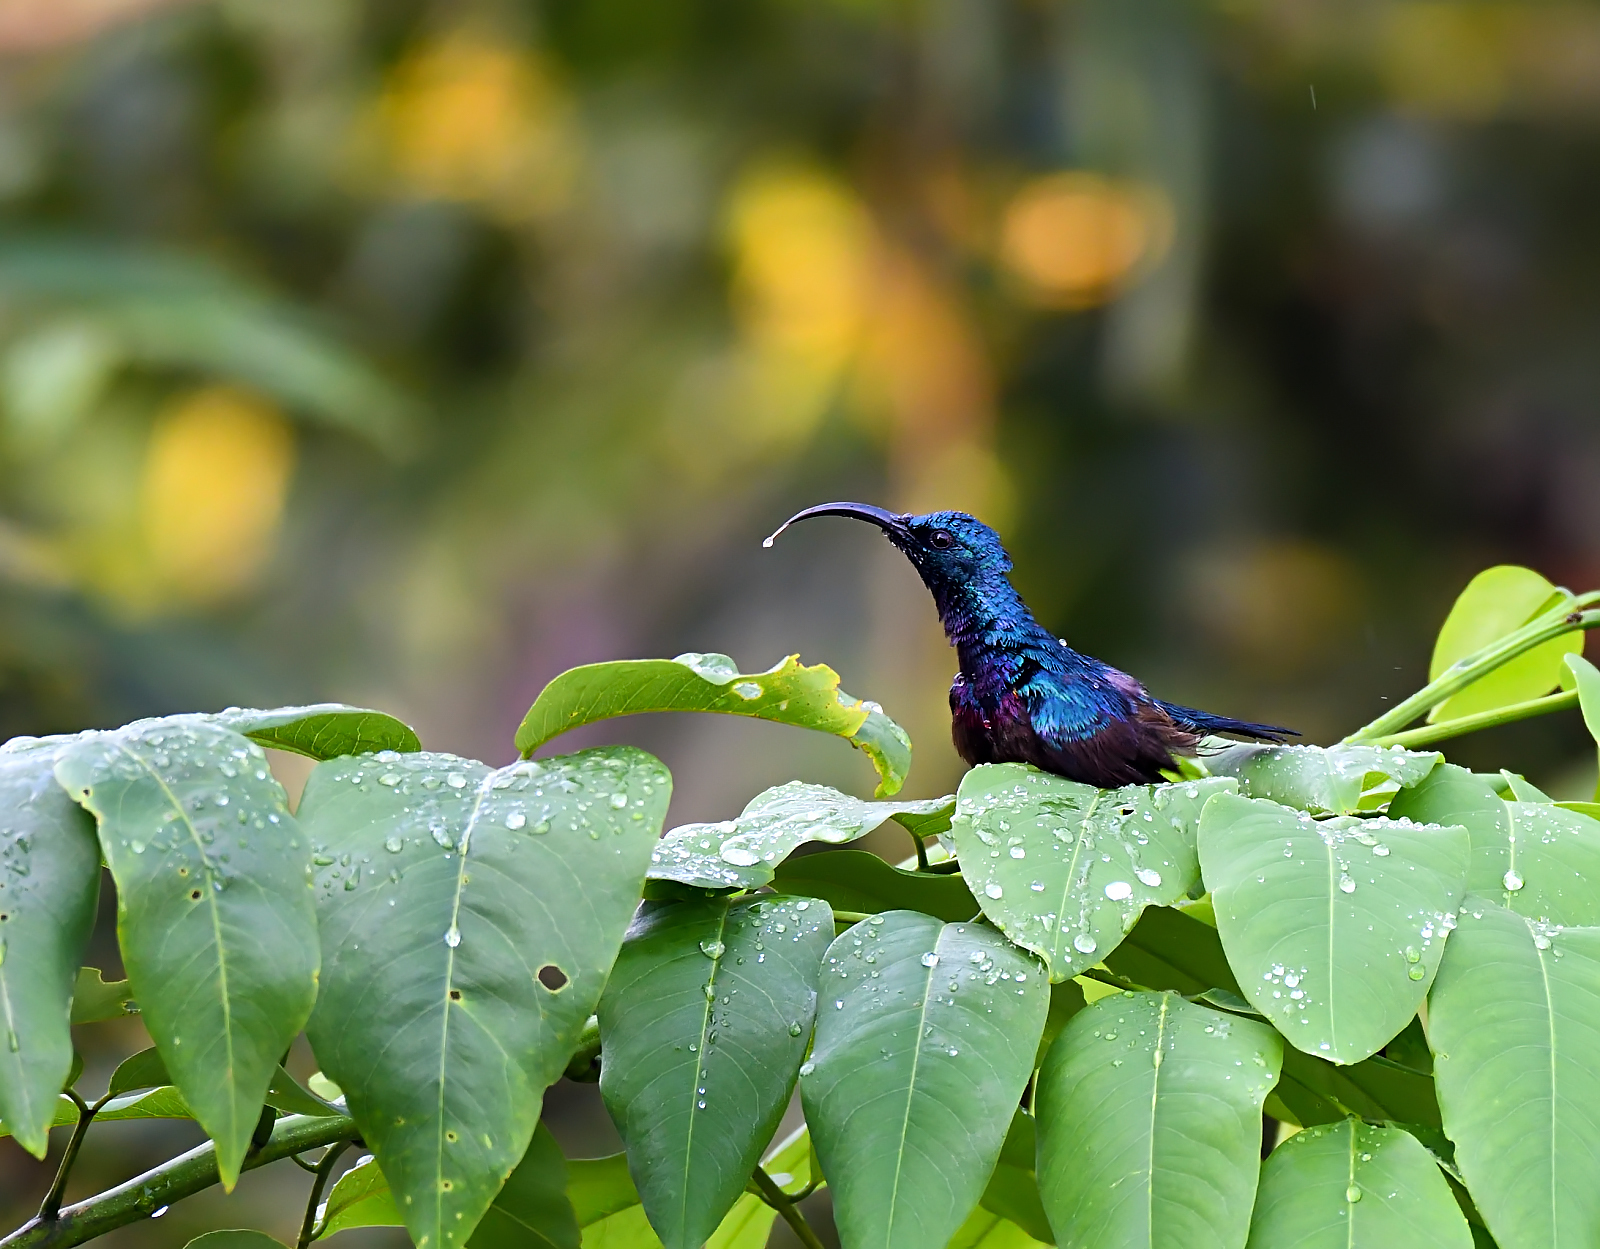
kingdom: Animalia
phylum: Chordata
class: Aves
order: Passeriformes
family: Nectariniidae
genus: Cinnyris
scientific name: Cinnyris lotenius
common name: Loten's sunbird
